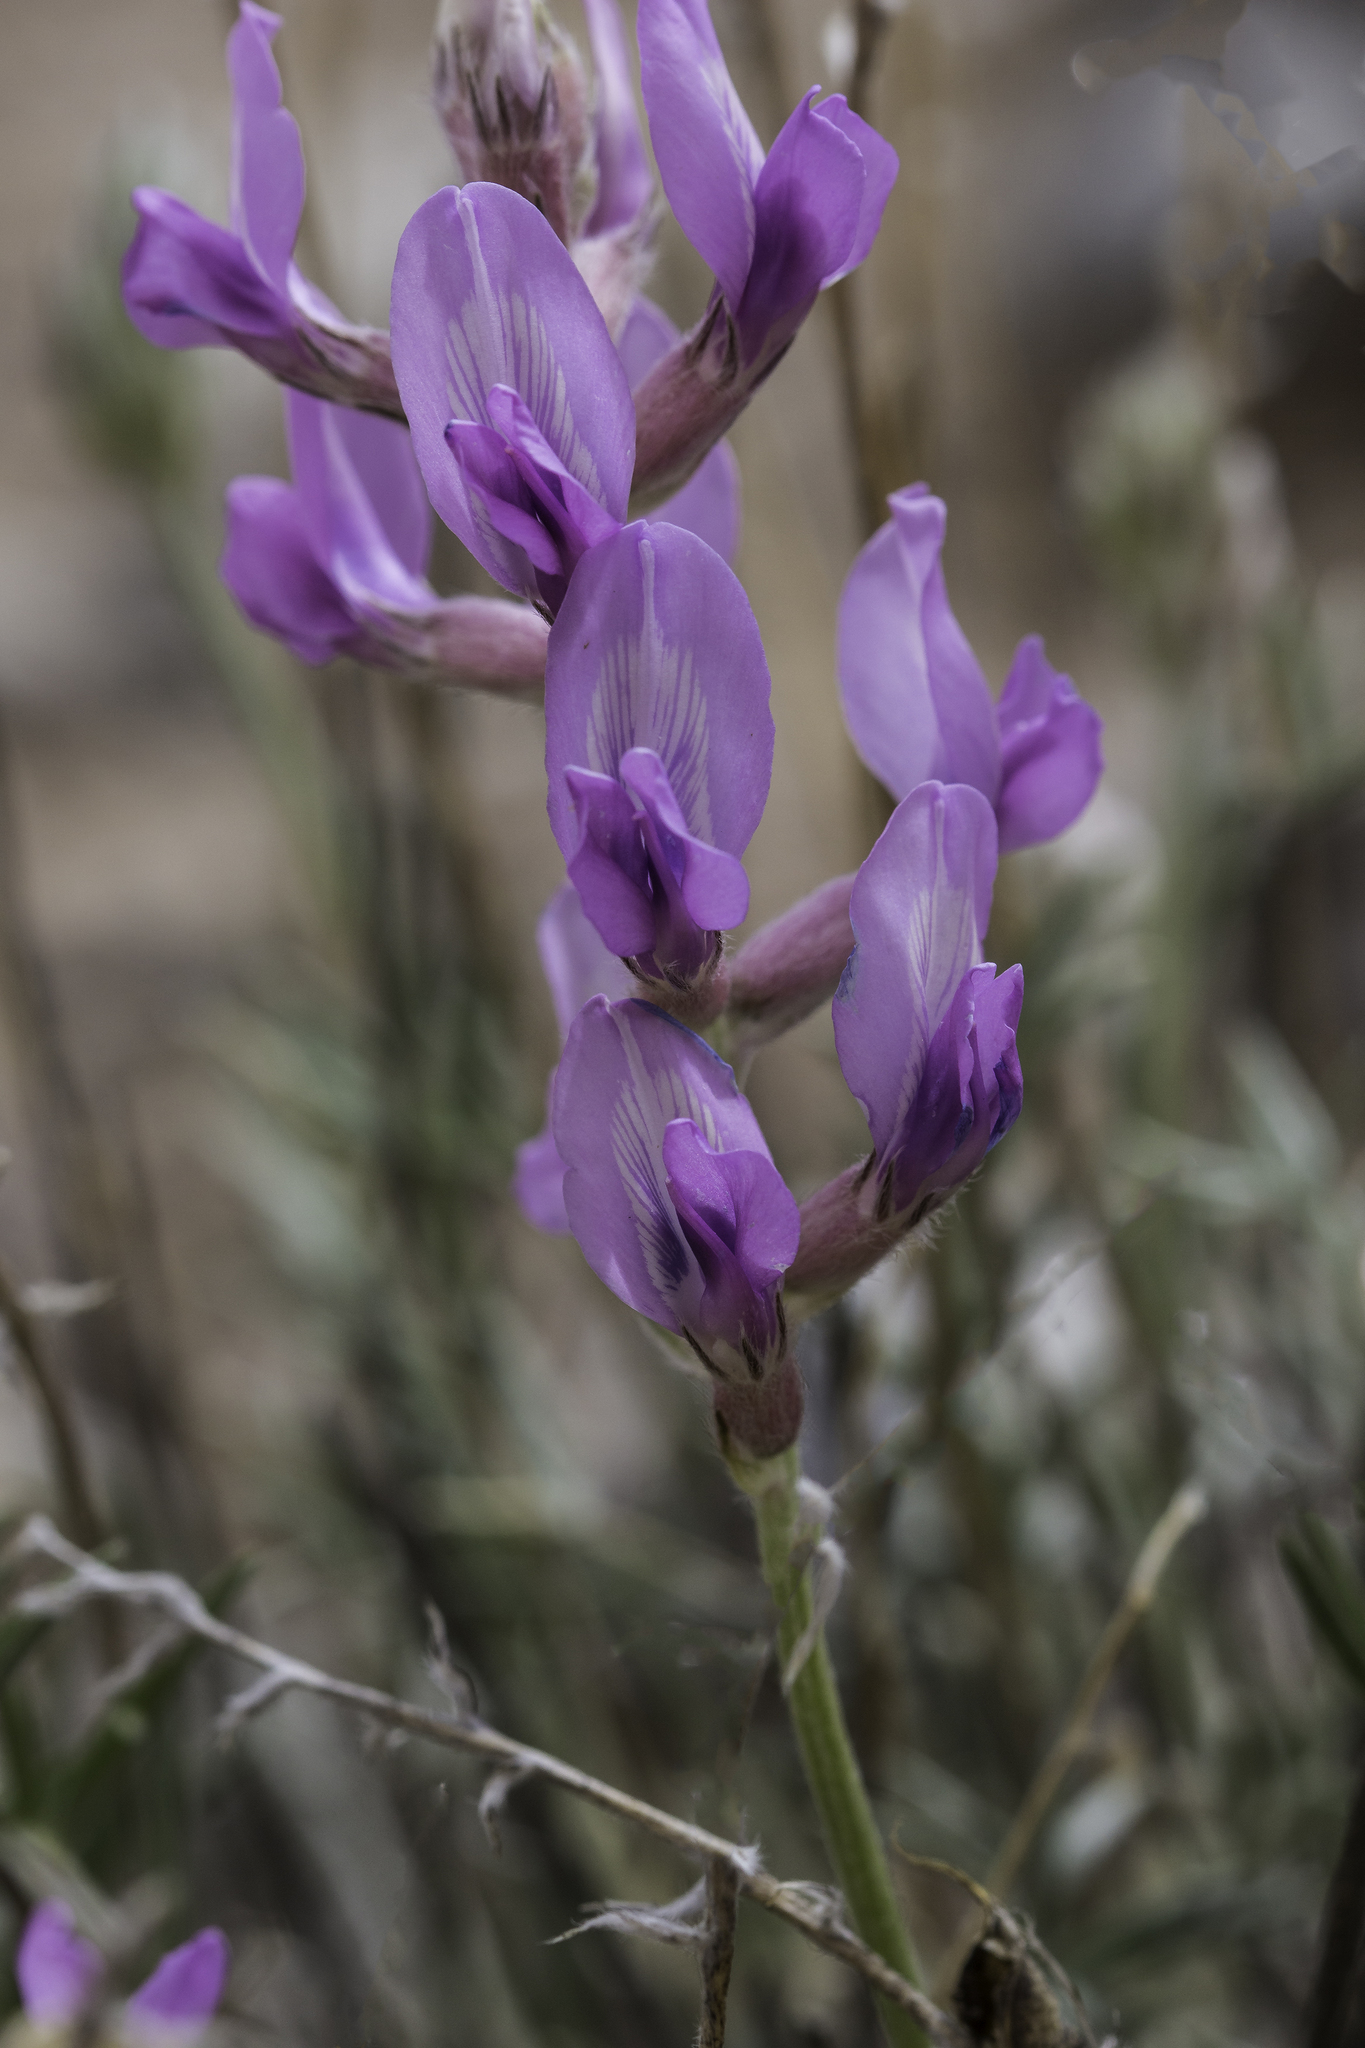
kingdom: Plantae
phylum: Tracheophyta
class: Magnoliopsida
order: Fabales
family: Fabaceae
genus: Oxytropis
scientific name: Oxytropis lambertii
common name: Purple locoweed
